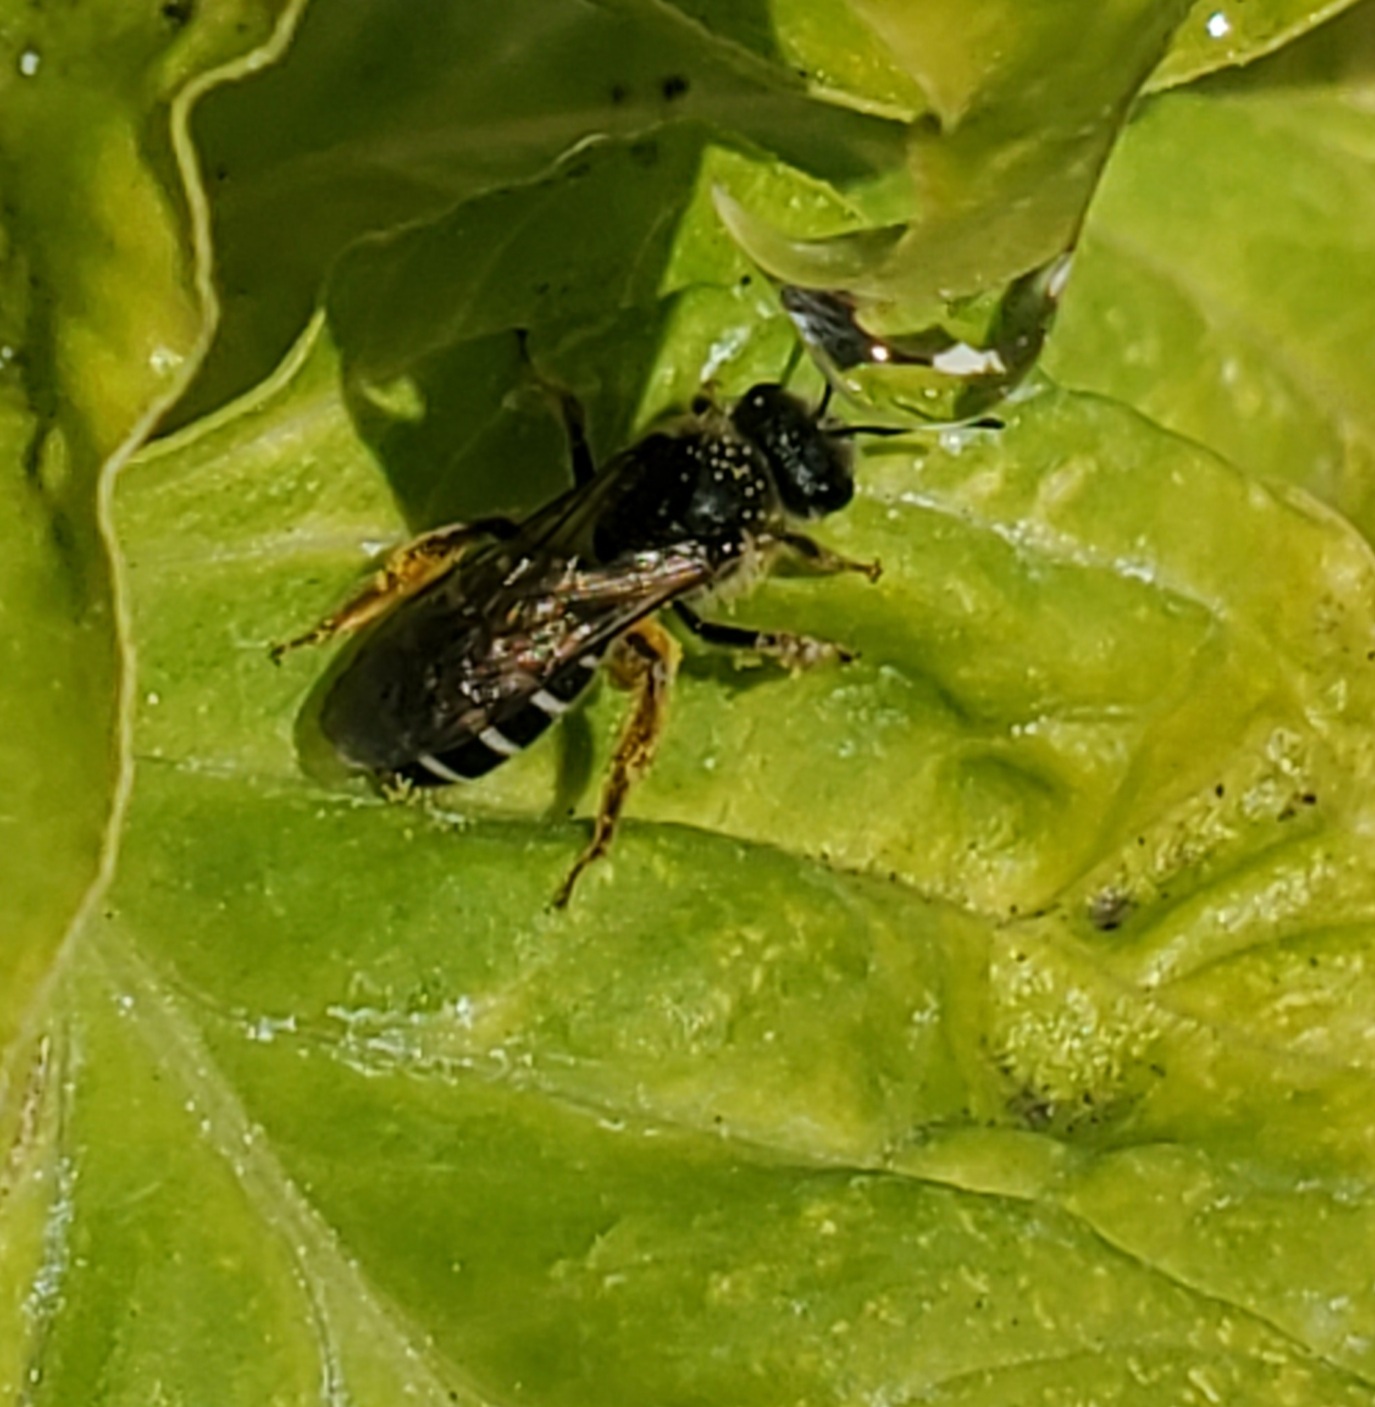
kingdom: Animalia
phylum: Arthropoda
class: Insecta
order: Hymenoptera
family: Halictidae
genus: Halictus
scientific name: Halictus rubicundus
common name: Orange-legged furrow bee
